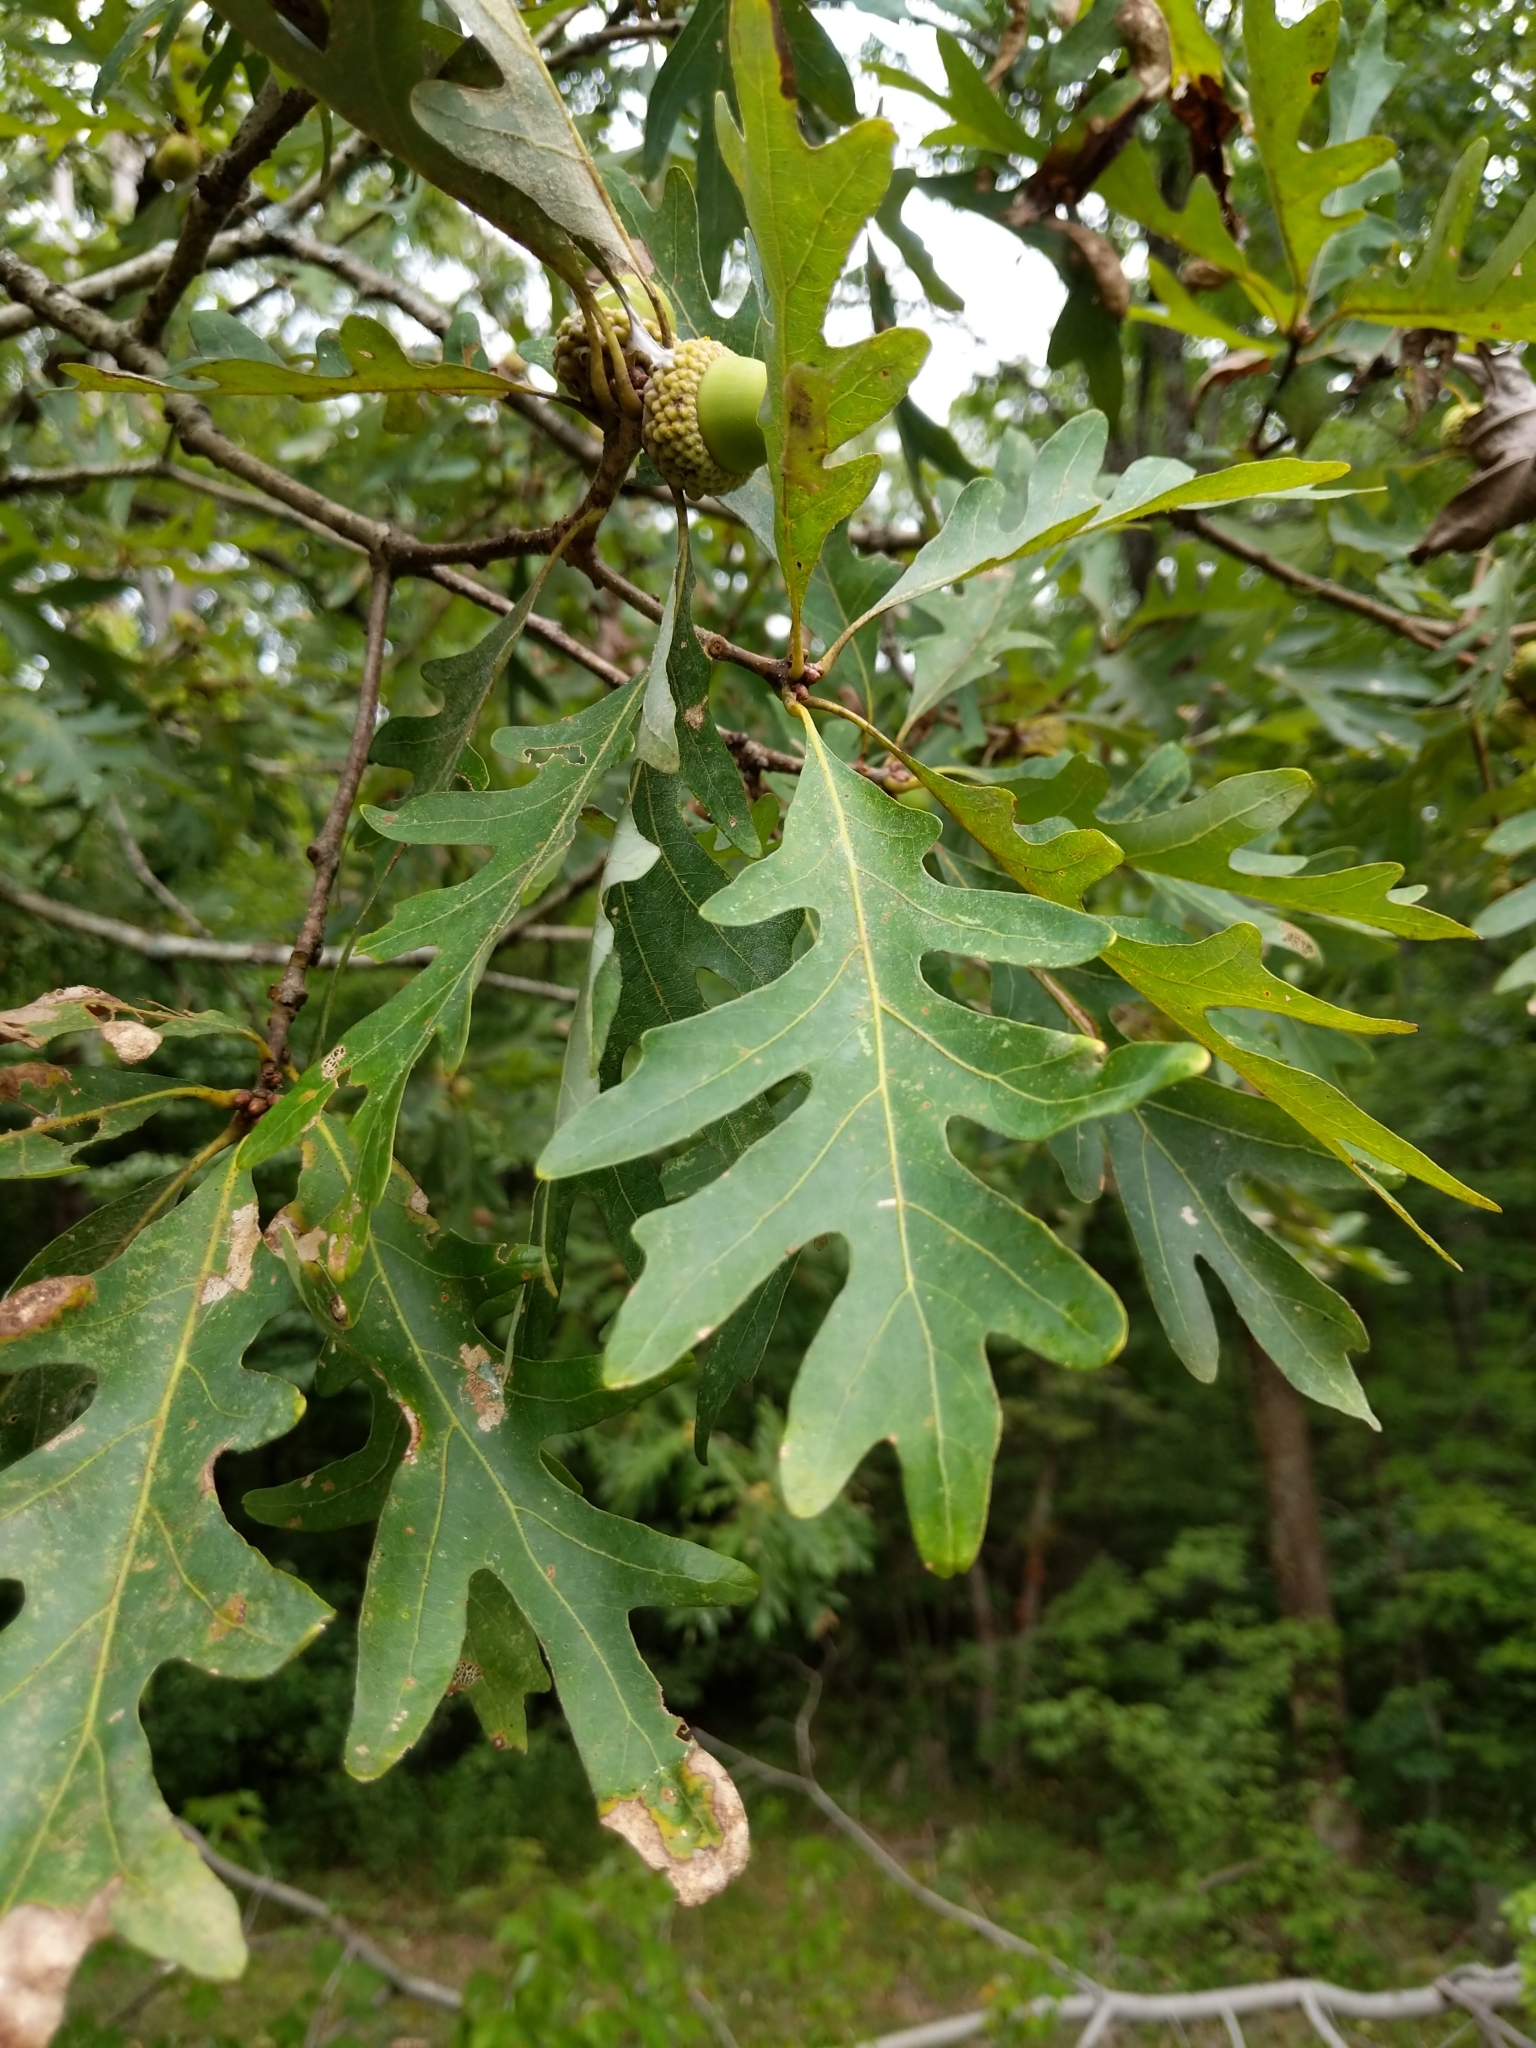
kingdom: Plantae
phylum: Tracheophyta
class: Magnoliopsida
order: Fagales
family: Fagaceae
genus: Quercus
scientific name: Quercus alba
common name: White oak
